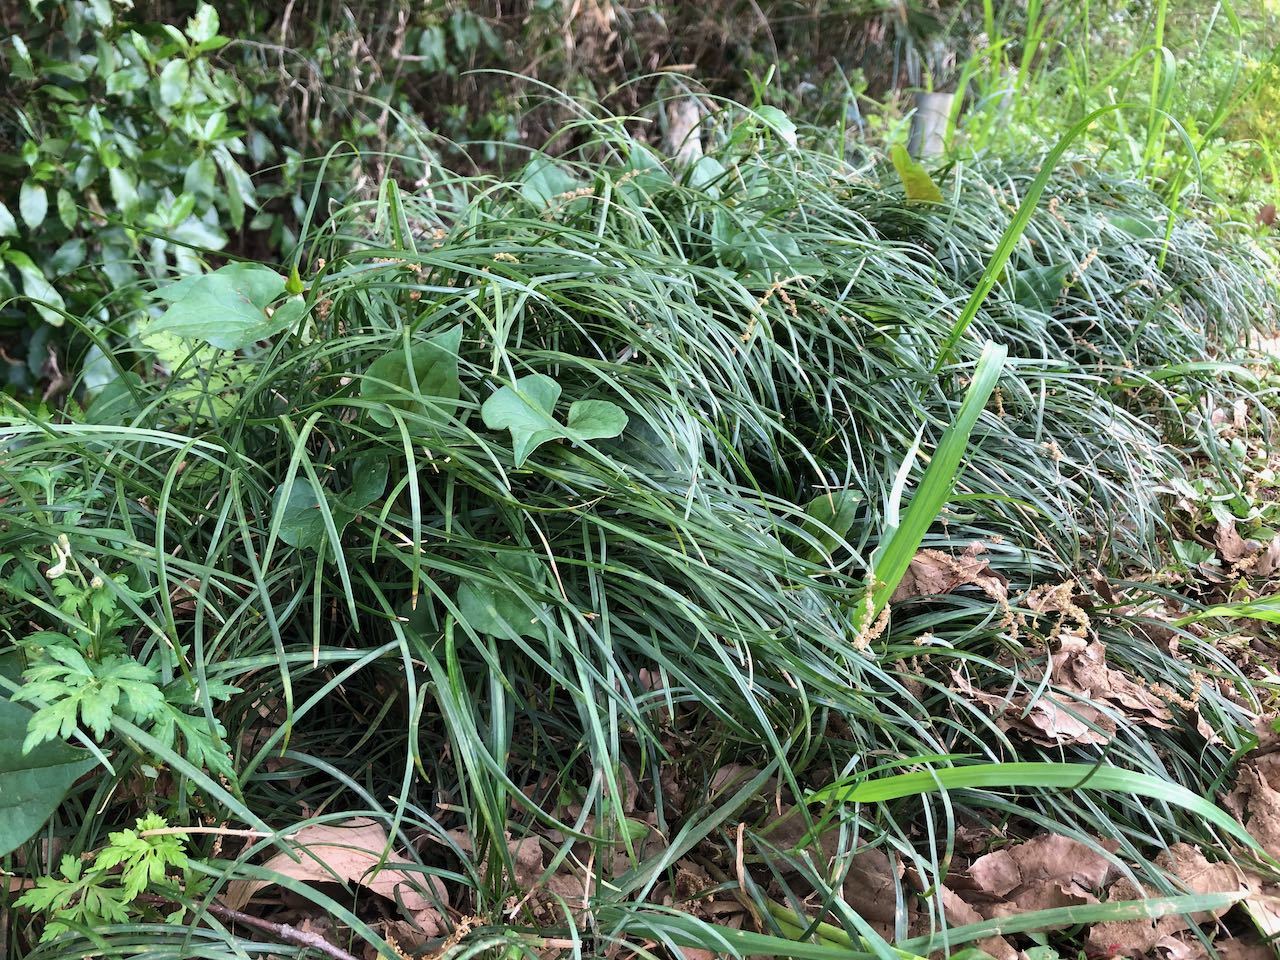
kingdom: Plantae
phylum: Tracheophyta
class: Liliopsida
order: Asparagales
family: Asparagaceae
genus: Ophiopogon
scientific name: Ophiopogon japonicus
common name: Dwarf lilyturf
